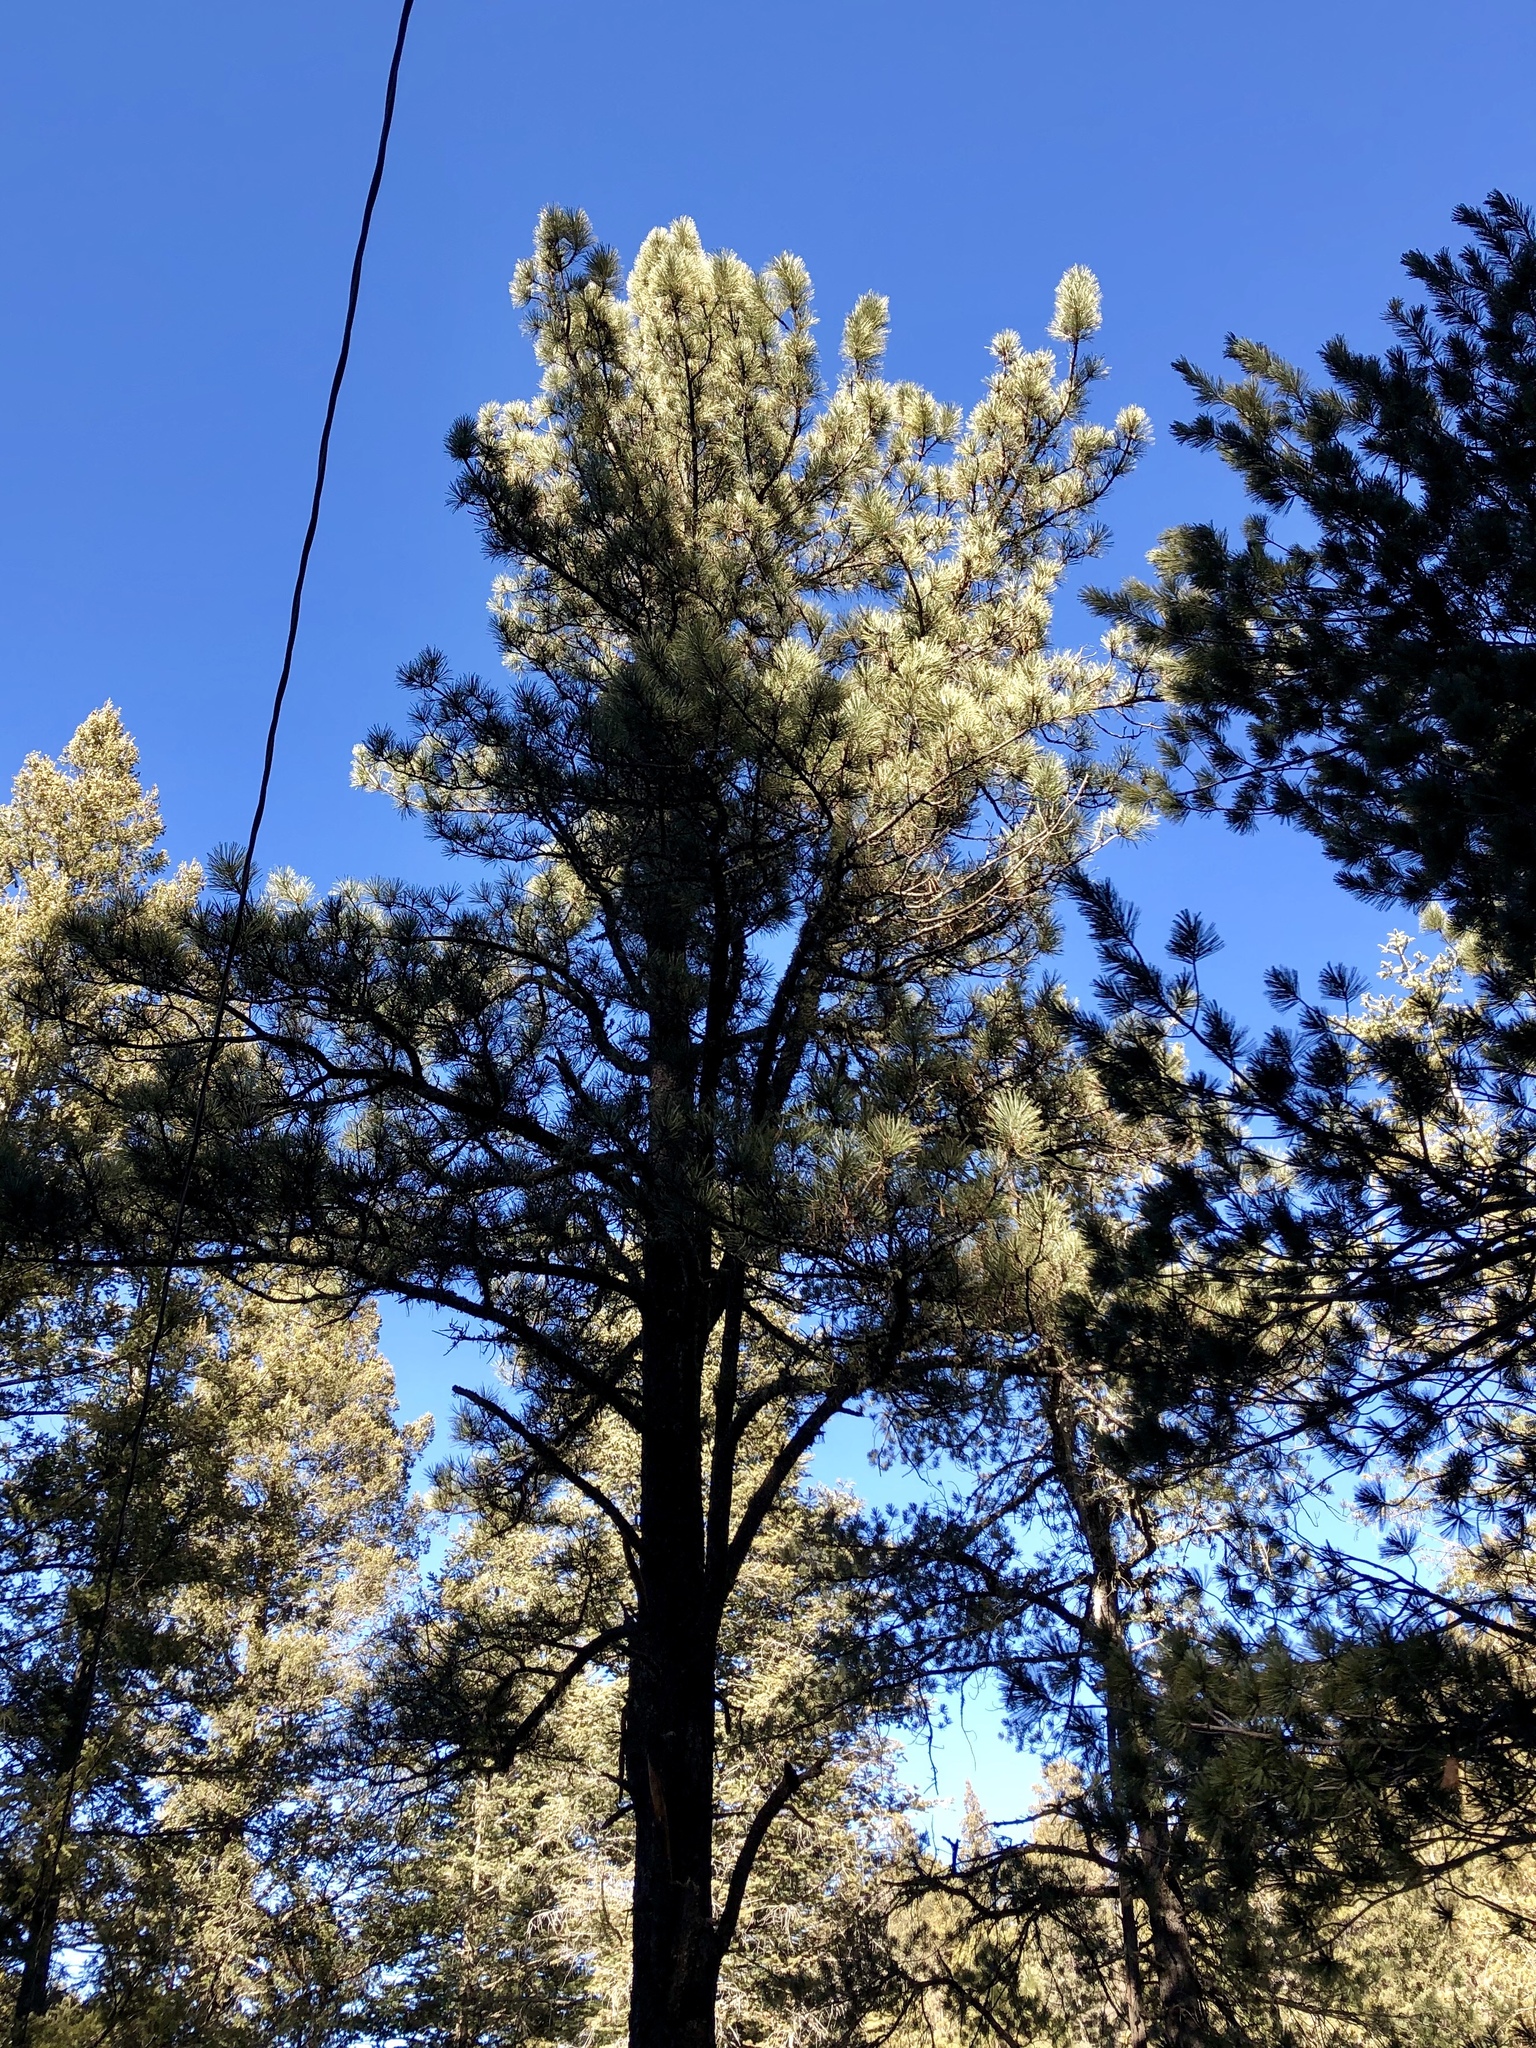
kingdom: Plantae
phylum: Tracheophyta
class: Pinopsida
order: Pinales
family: Pinaceae
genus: Pinus
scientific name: Pinus ponderosa
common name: Western yellow-pine
